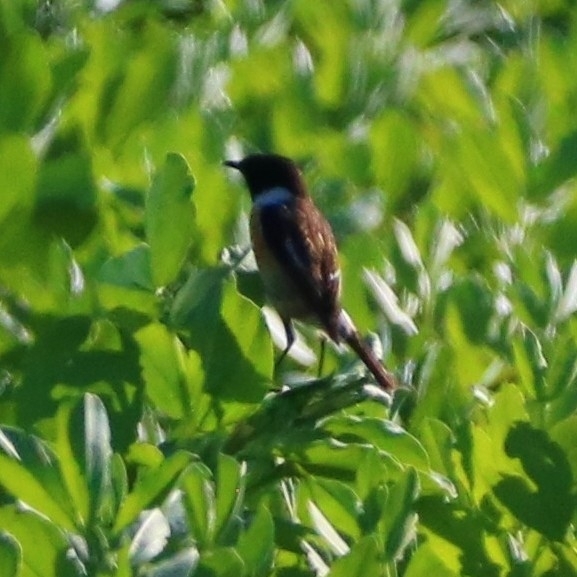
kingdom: Animalia
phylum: Chordata
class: Aves
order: Passeriformes
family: Muscicapidae
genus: Saxicola
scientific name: Saxicola rubicola
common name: European stonechat
